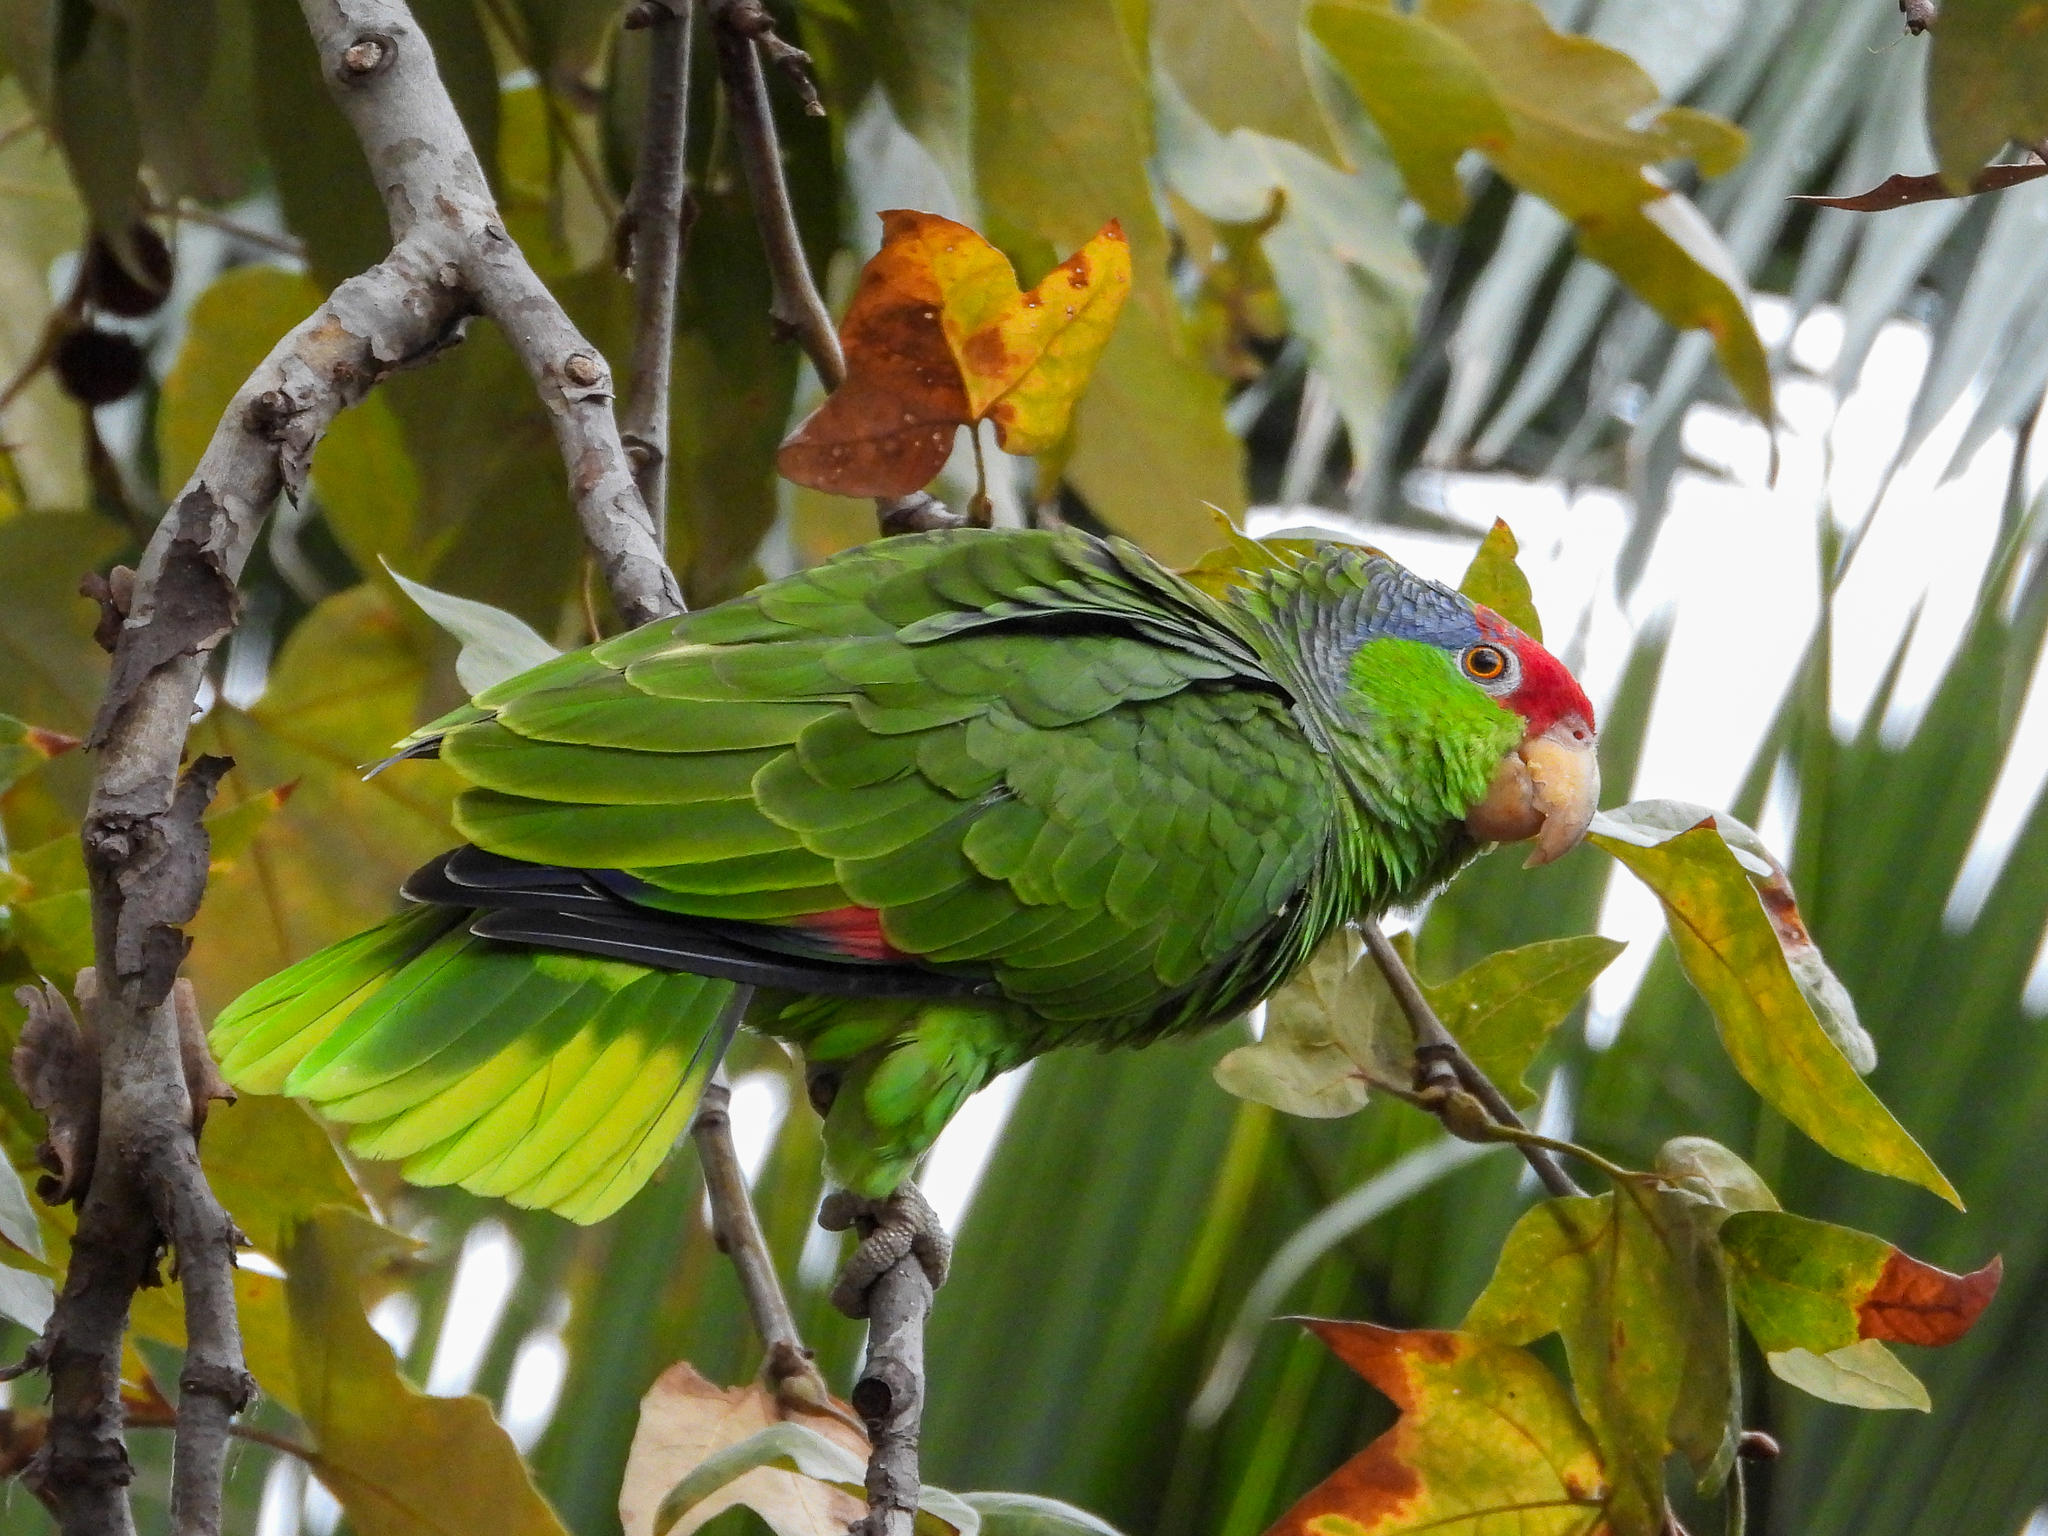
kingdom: Animalia
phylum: Chordata
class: Aves
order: Psittaciformes
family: Psittacidae
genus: Amazona
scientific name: Amazona viridigenalis
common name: Red-crowned amazon
